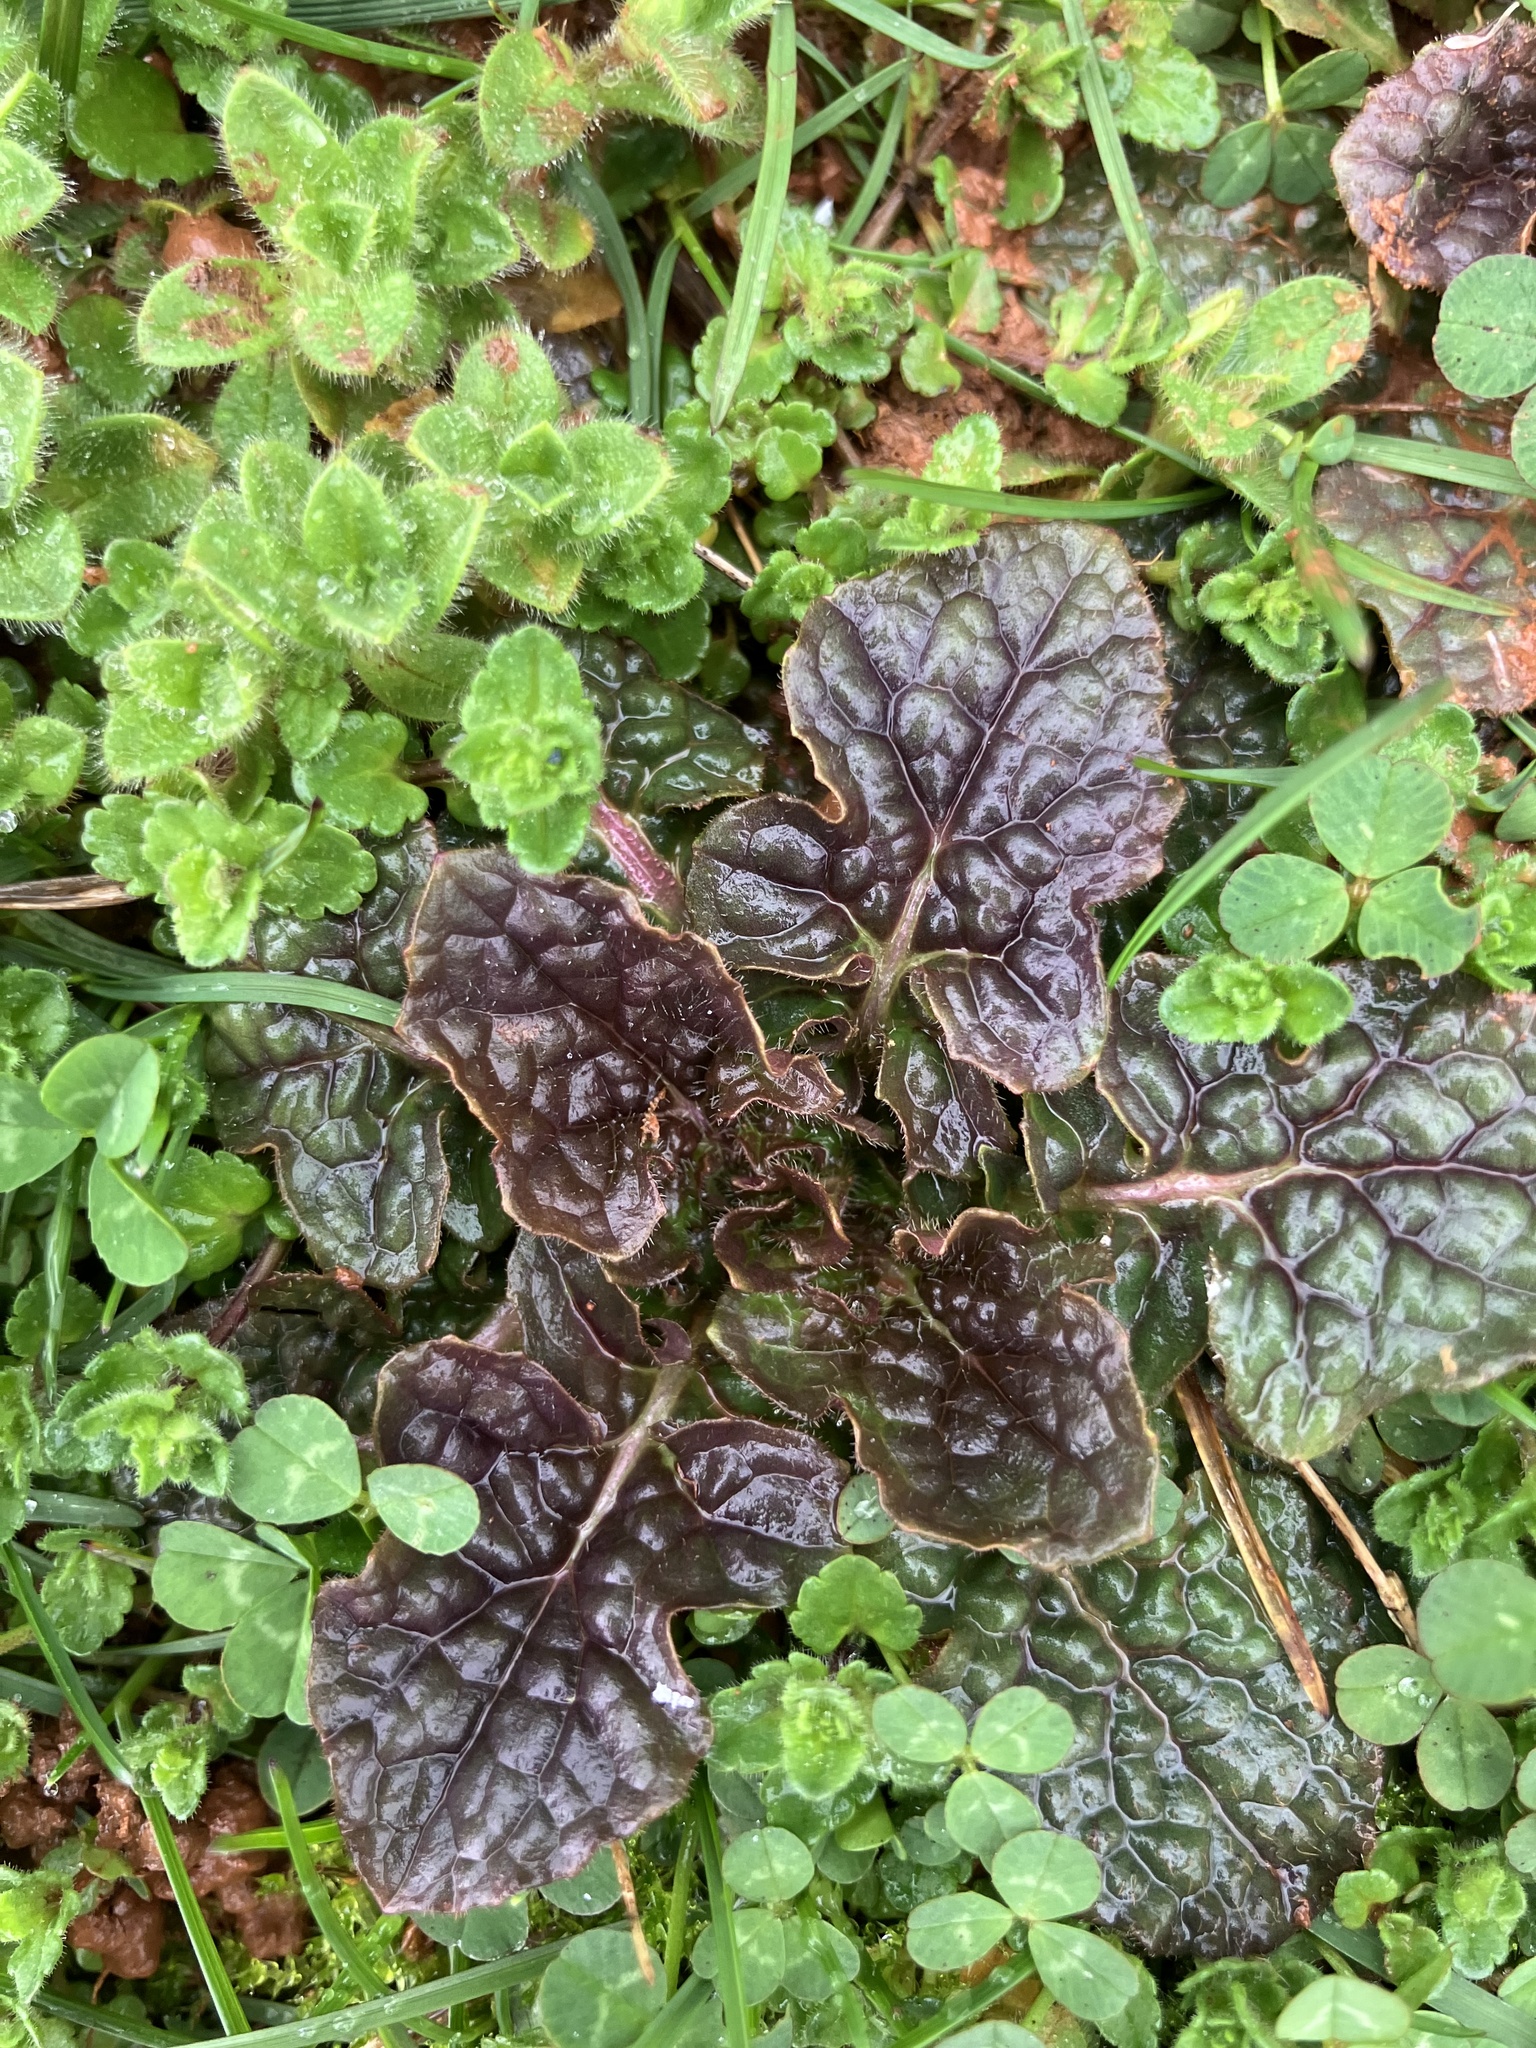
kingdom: Plantae
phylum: Tracheophyta
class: Magnoliopsida
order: Lamiales
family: Lamiaceae
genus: Salvia
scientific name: Salvia lyrata
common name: Cancerweed
